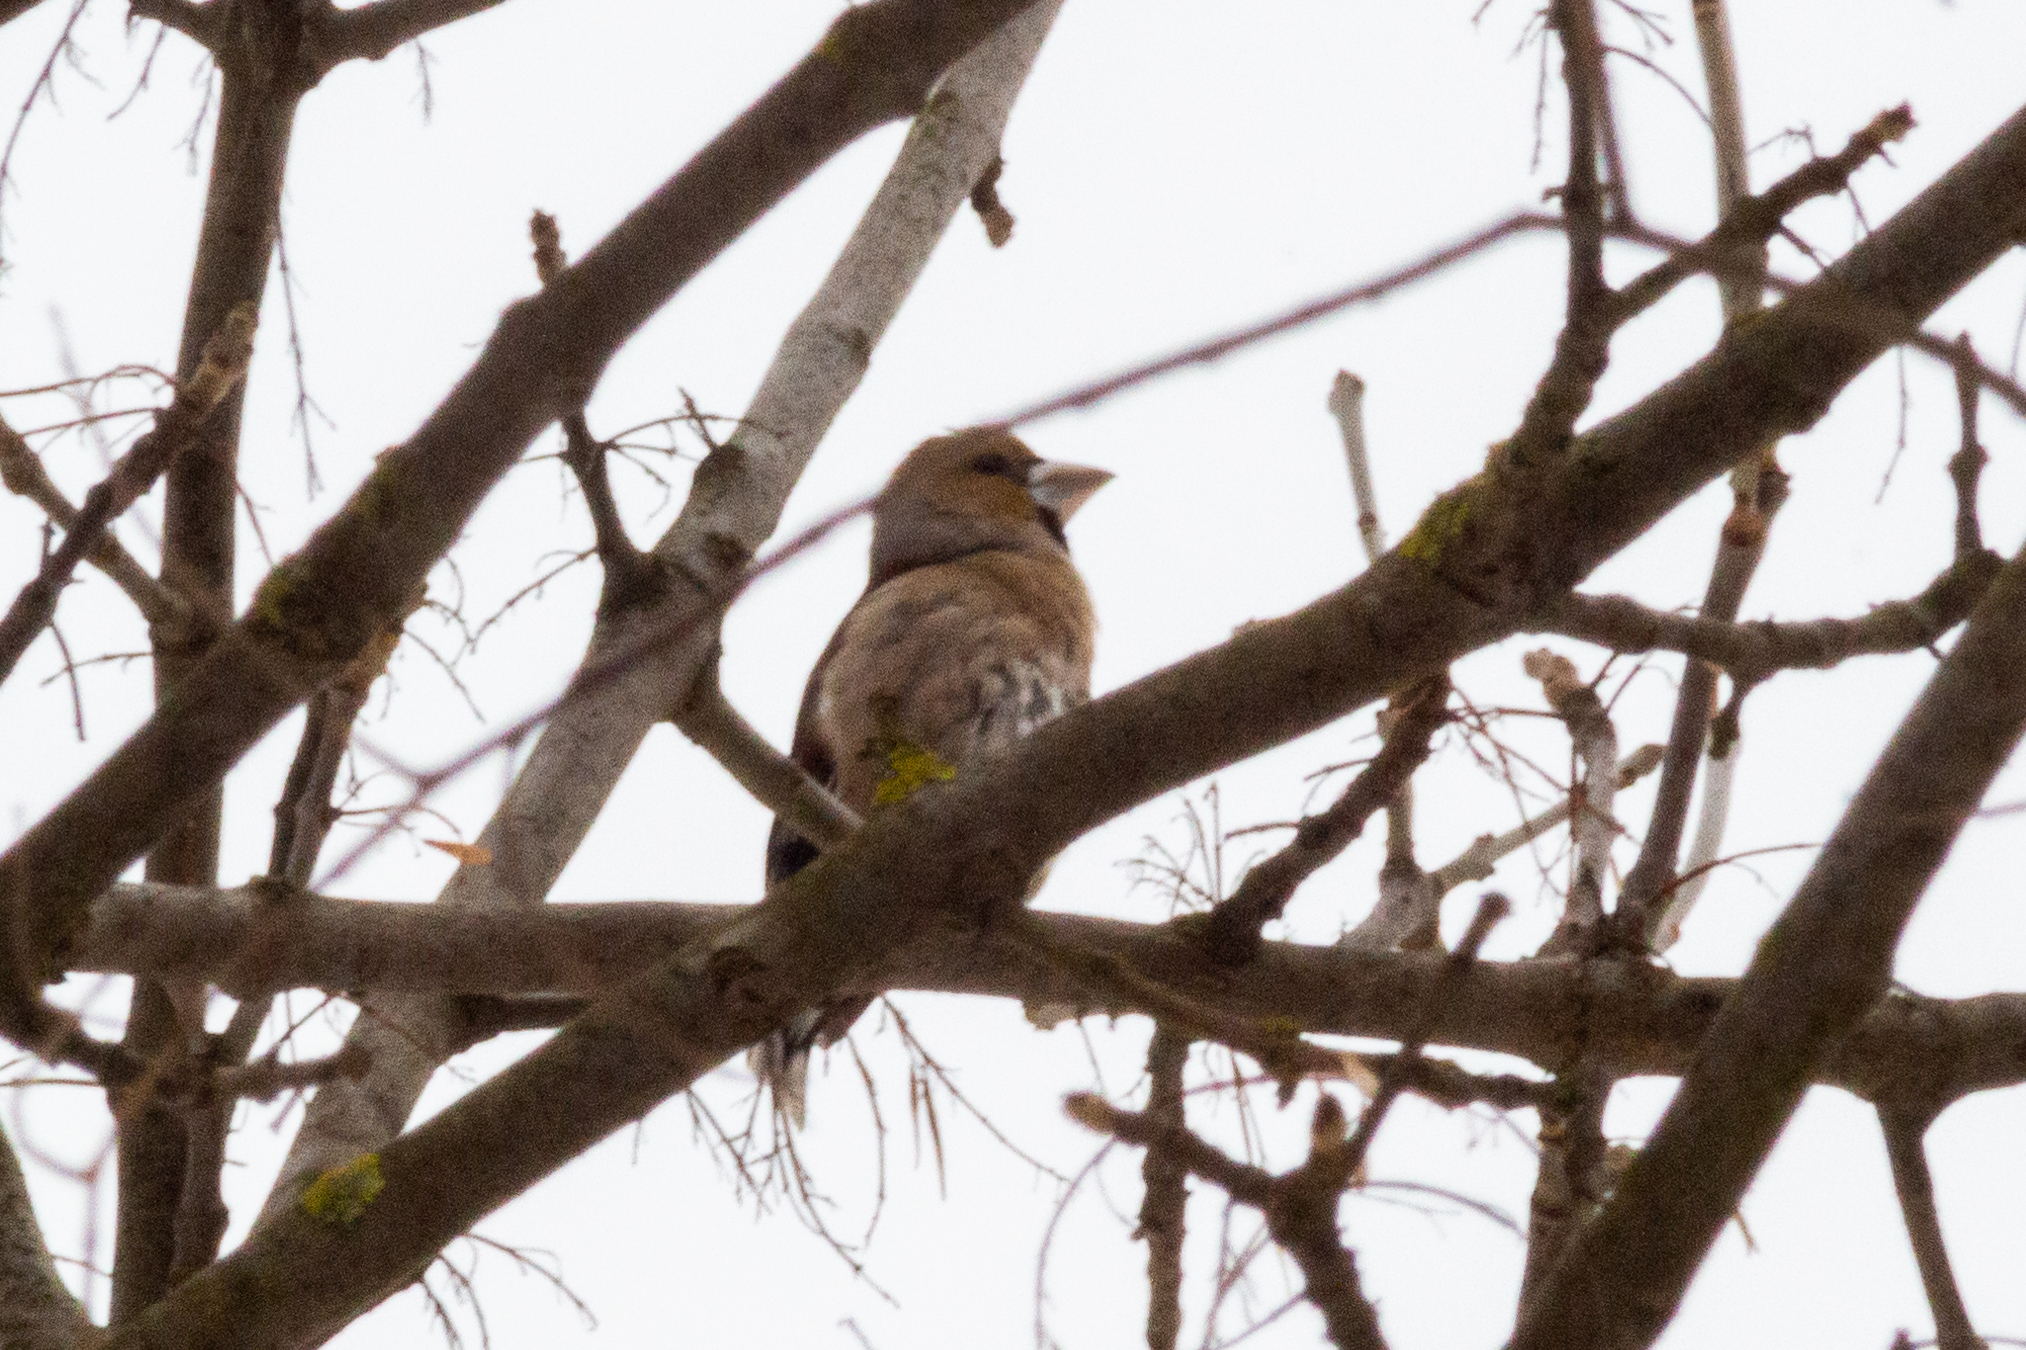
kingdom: Animalia
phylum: Chordata
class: Aves
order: Passeriformes
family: Fringillidae
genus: Coccothraustes
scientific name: Coccothraustes coccothraustes
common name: Hawfinch
